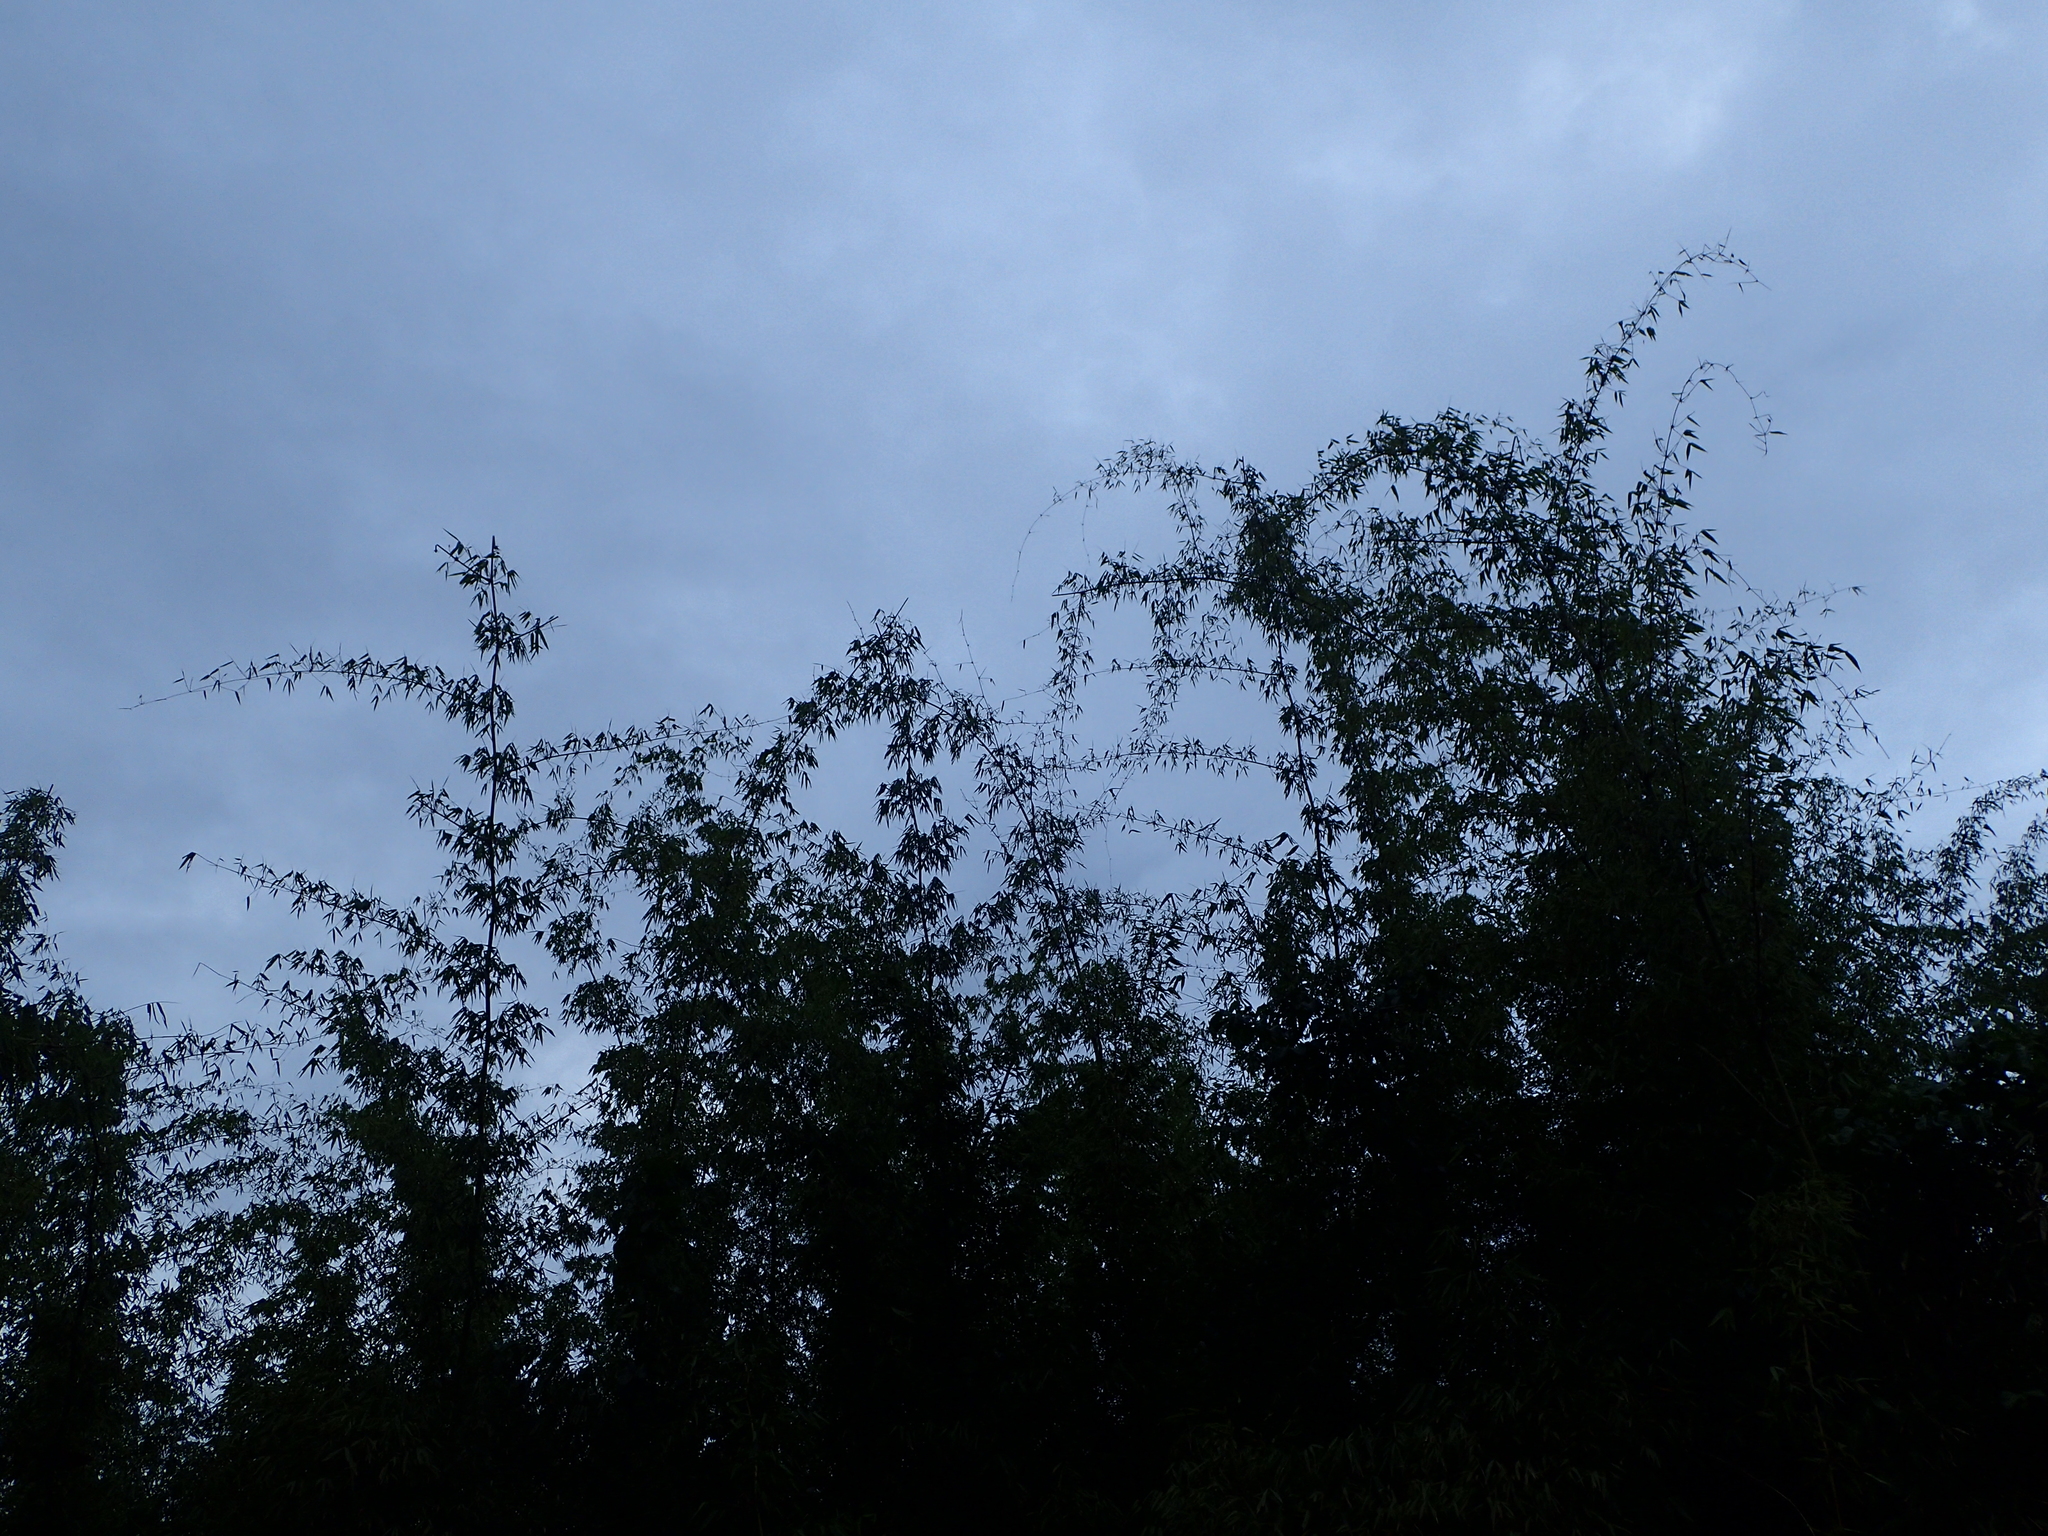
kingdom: Plantae
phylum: Tracheophyta
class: Liliopsida
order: Poales
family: Poaceae
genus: Valiha
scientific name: Valiha diffusa
